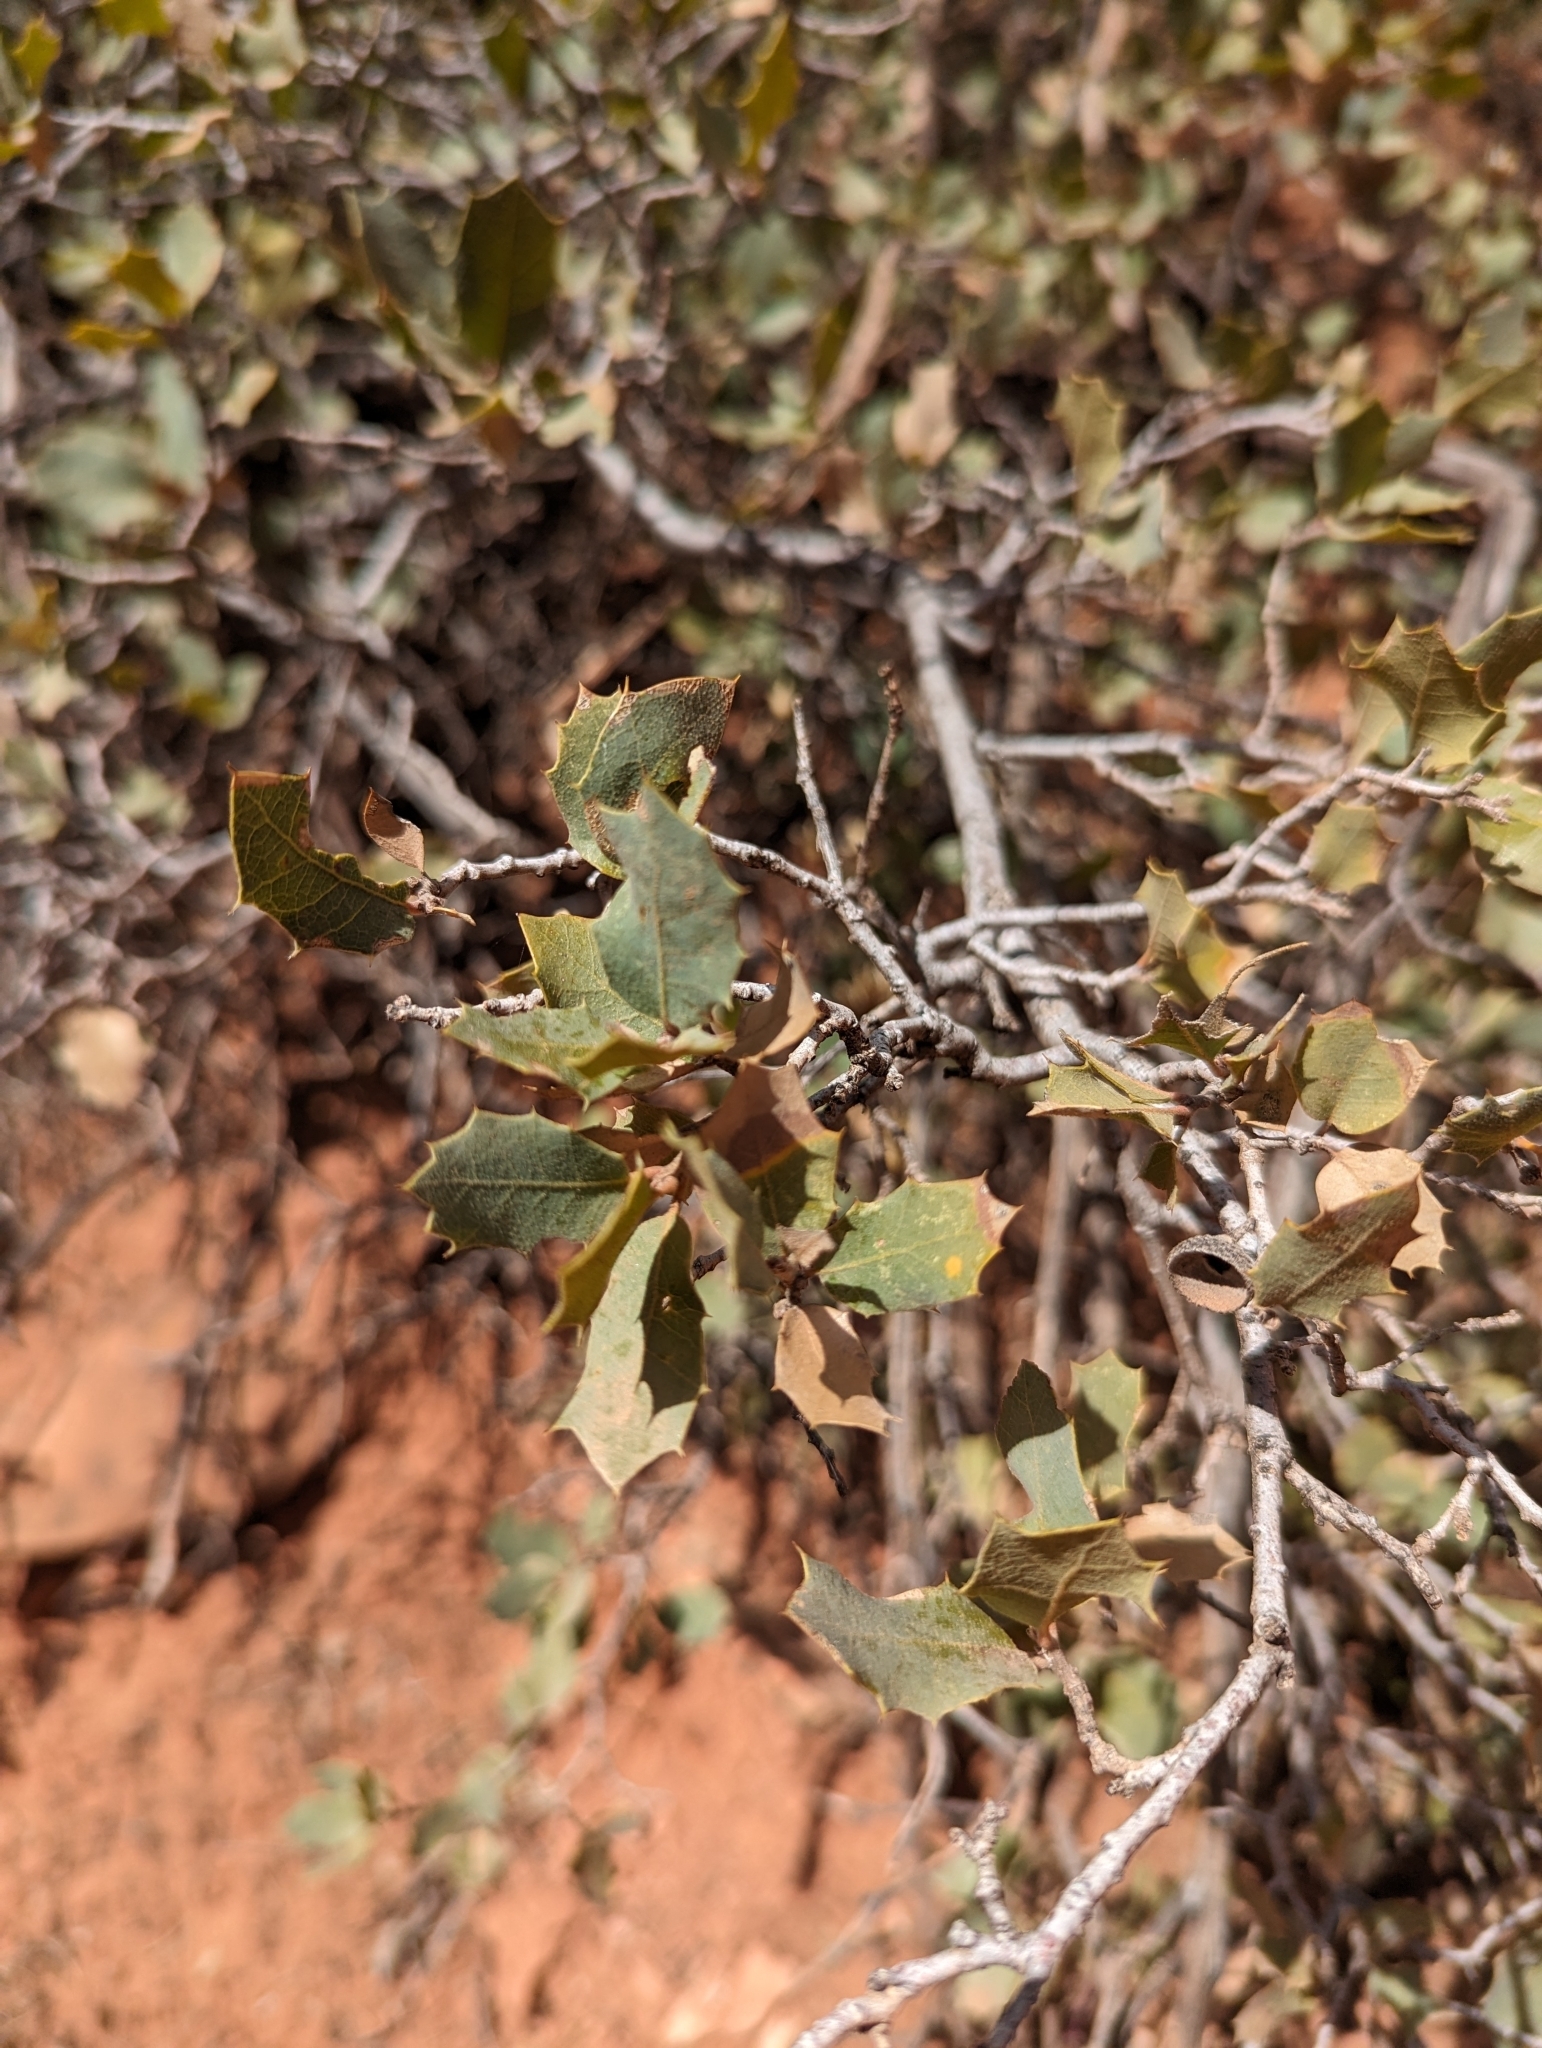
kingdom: Plantae
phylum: Tracheophyta
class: Magnoliopsida
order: Fagales
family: Fagaceae
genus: Quercus
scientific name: Quercus turbinella
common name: Sonoran scrub oak
